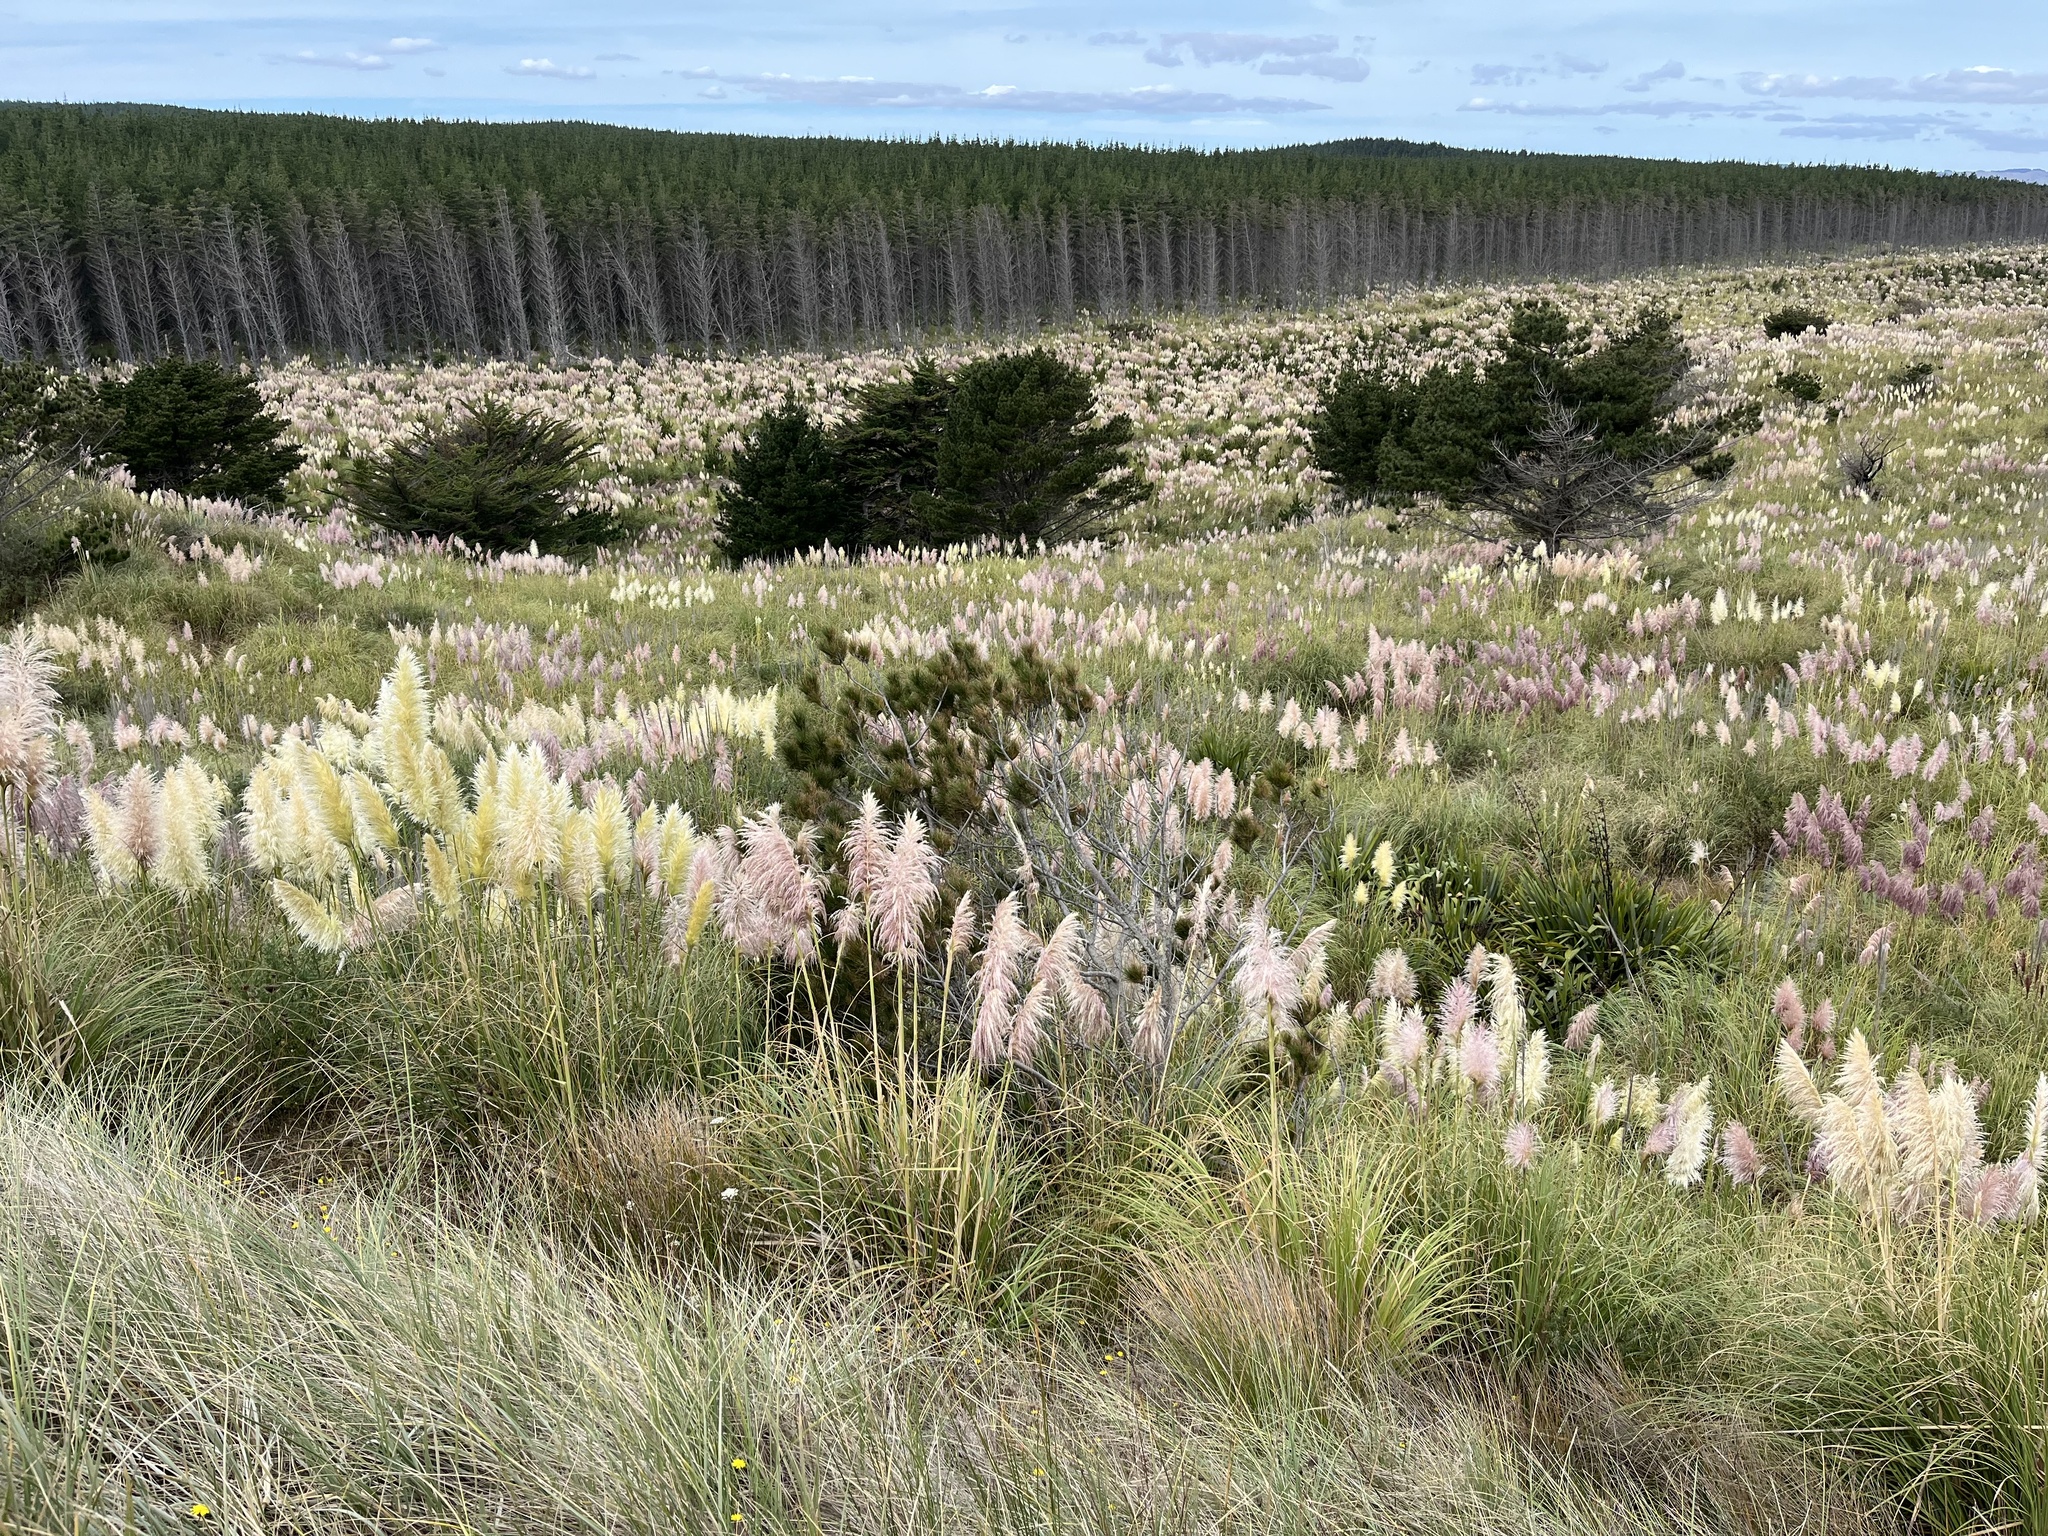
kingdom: Plantae
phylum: Tracheophyta
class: Liliopsida
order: Poales
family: Poaceae
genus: Cortaderia
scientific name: Cortaderia selloana
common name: Uruguayan pampas grass
